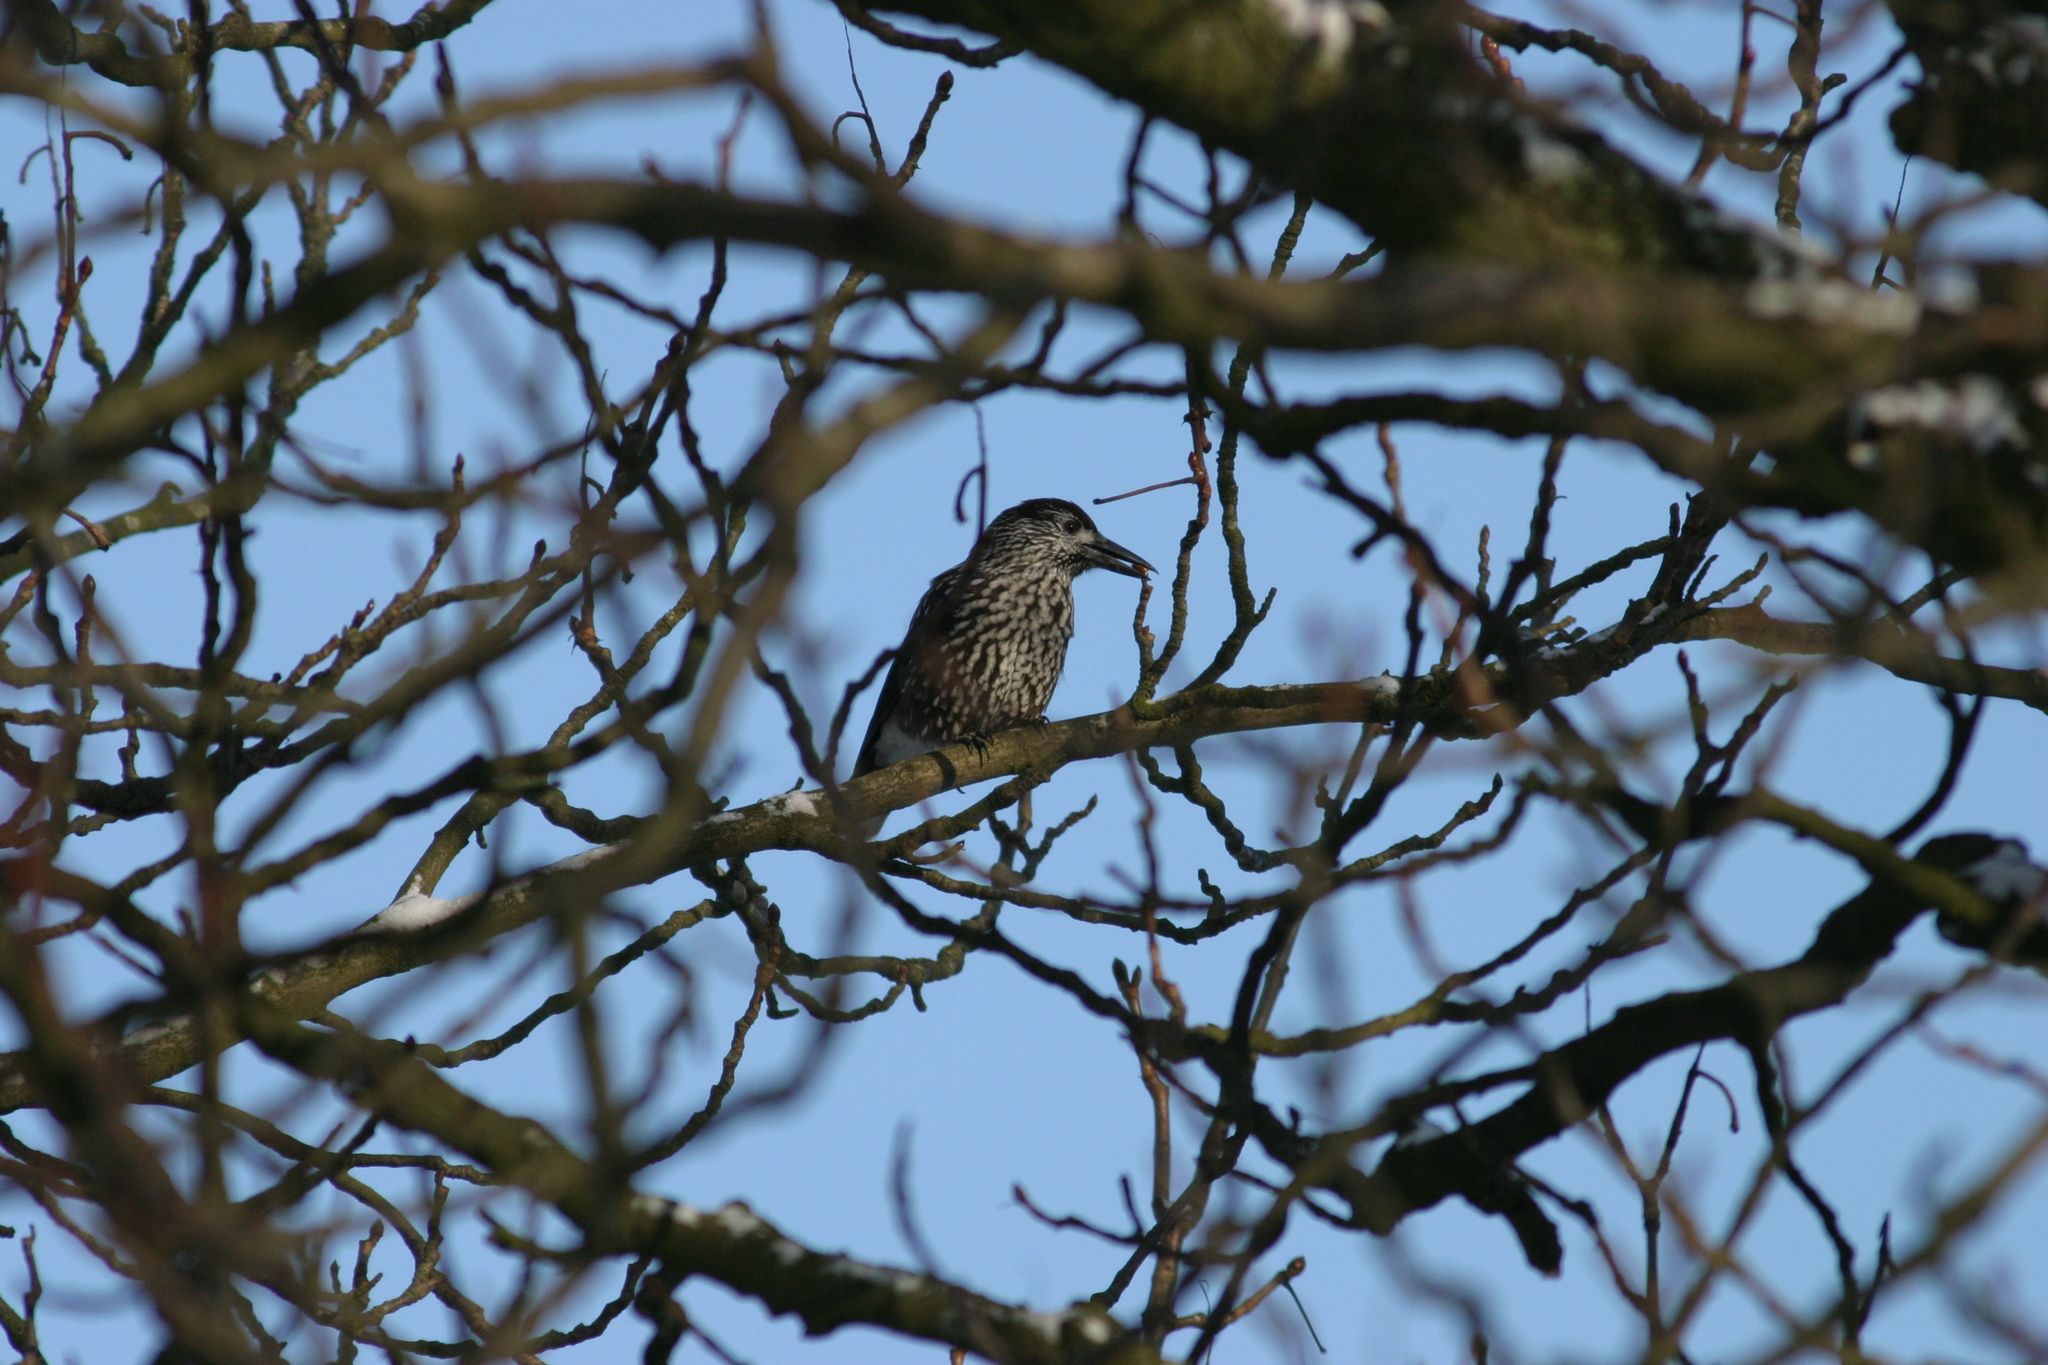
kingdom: Animalia
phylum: Chordata
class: Aves
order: Passeriformes
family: Corvidae
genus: Nucifraga
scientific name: Nucifraga caryocatactes
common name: Spotted nutcracker
